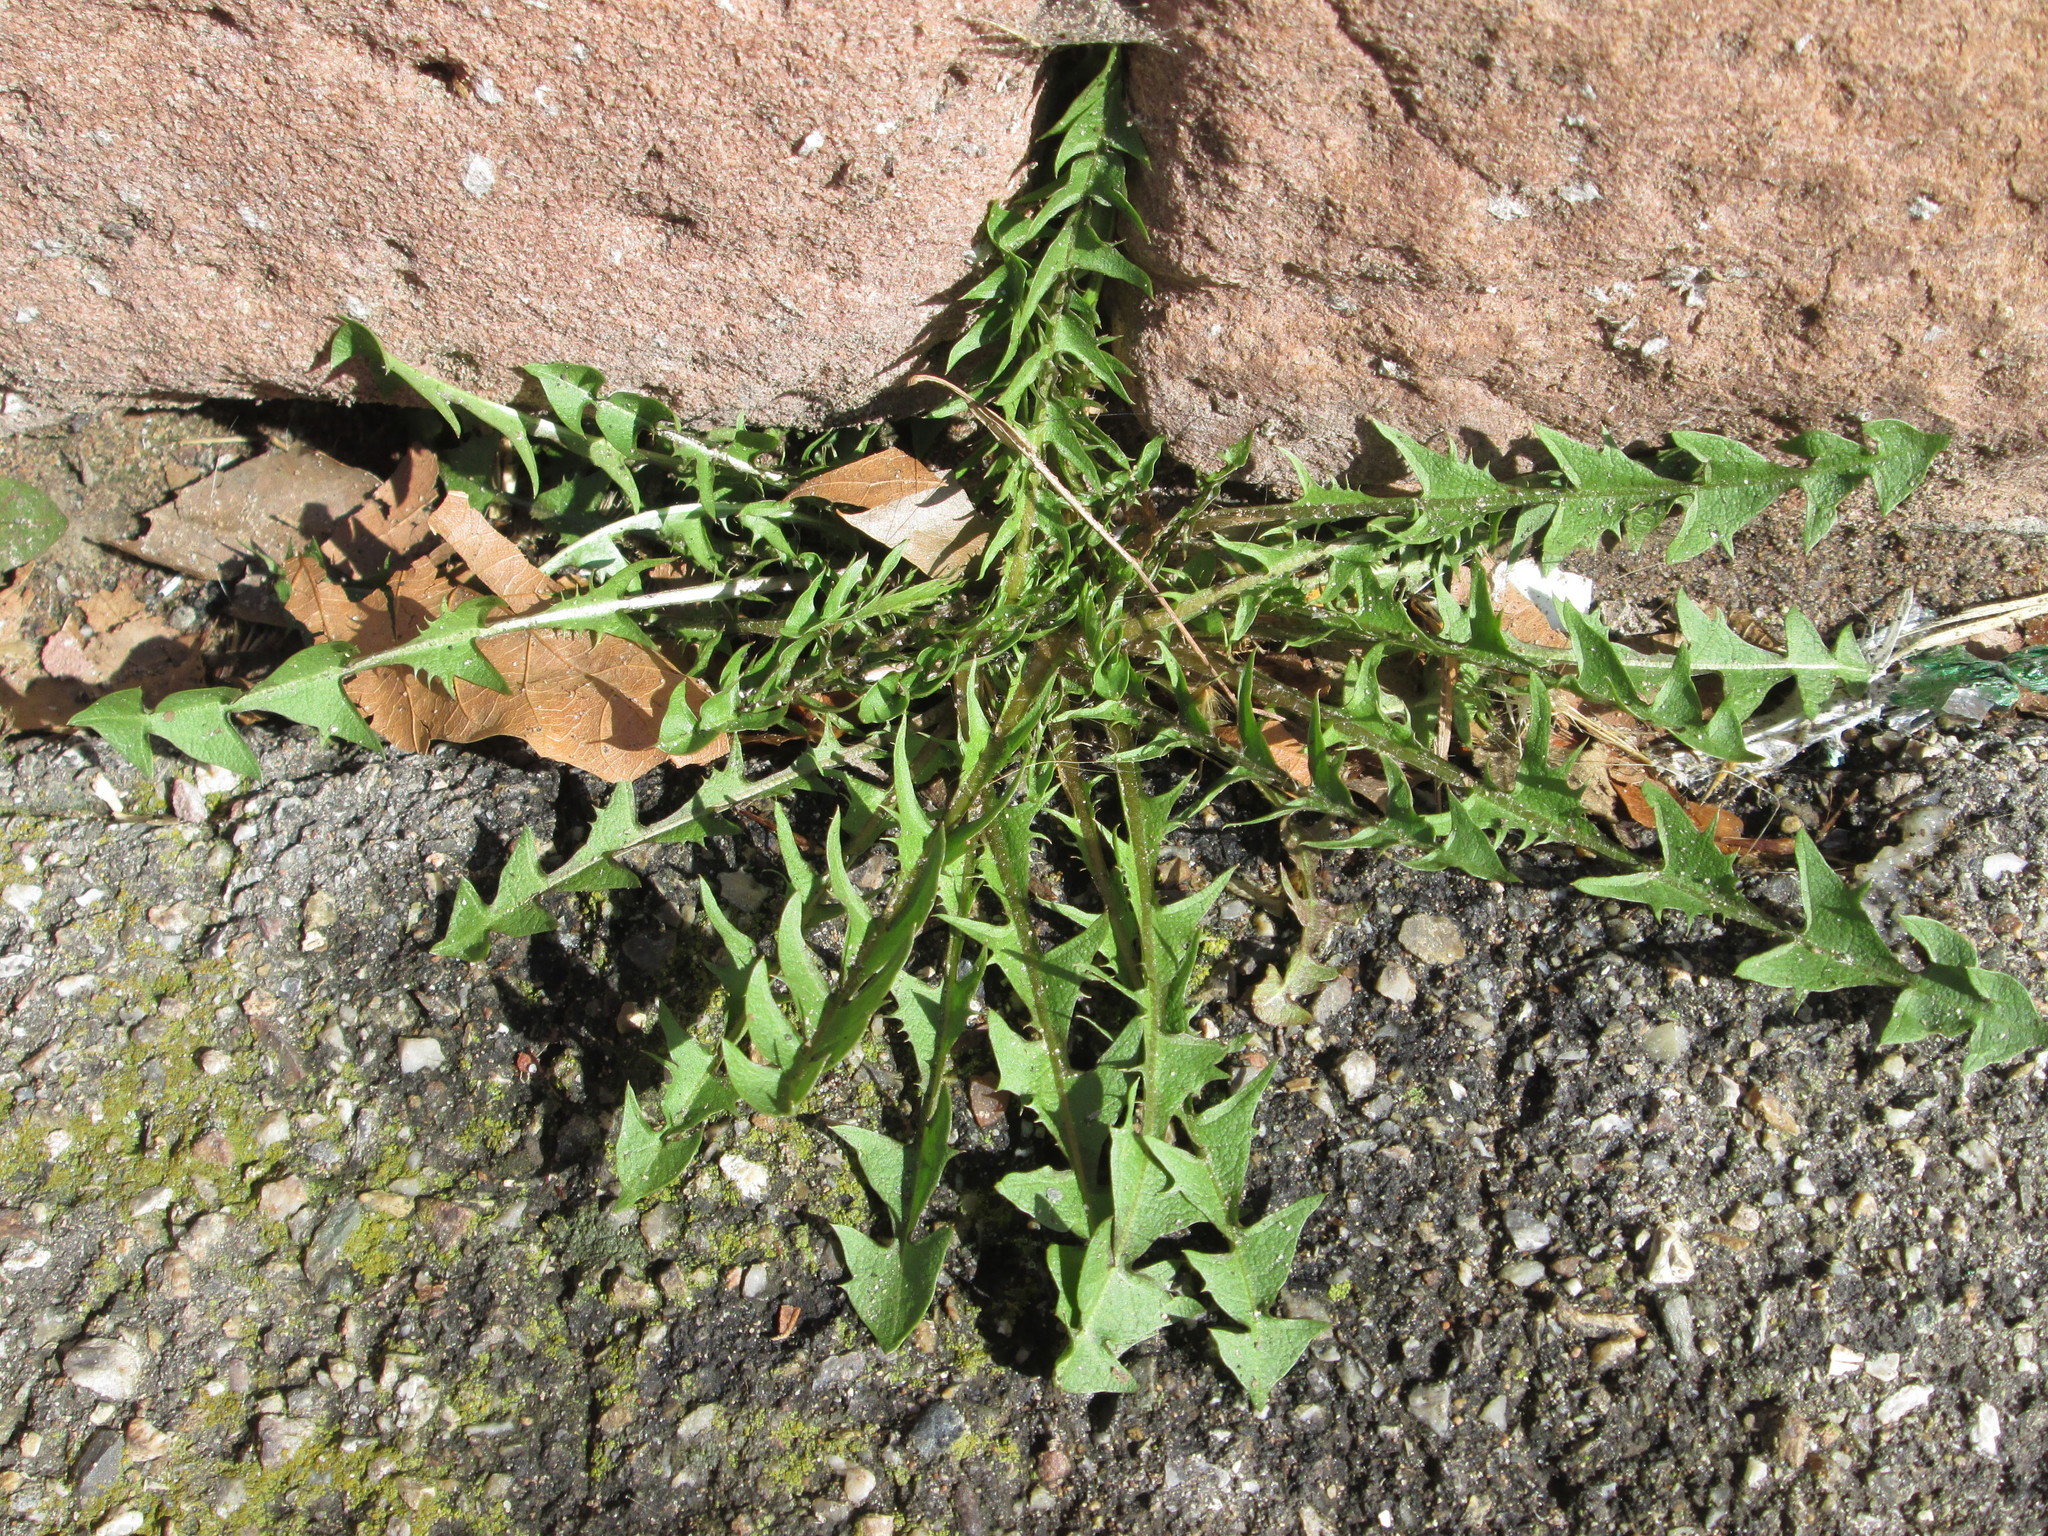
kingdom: Plantae
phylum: Tracheophyta
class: Magnoliopsida
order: Asterales
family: Asteraceae
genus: Taraxacum
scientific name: Taraxacum officinale
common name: Common dandelion
